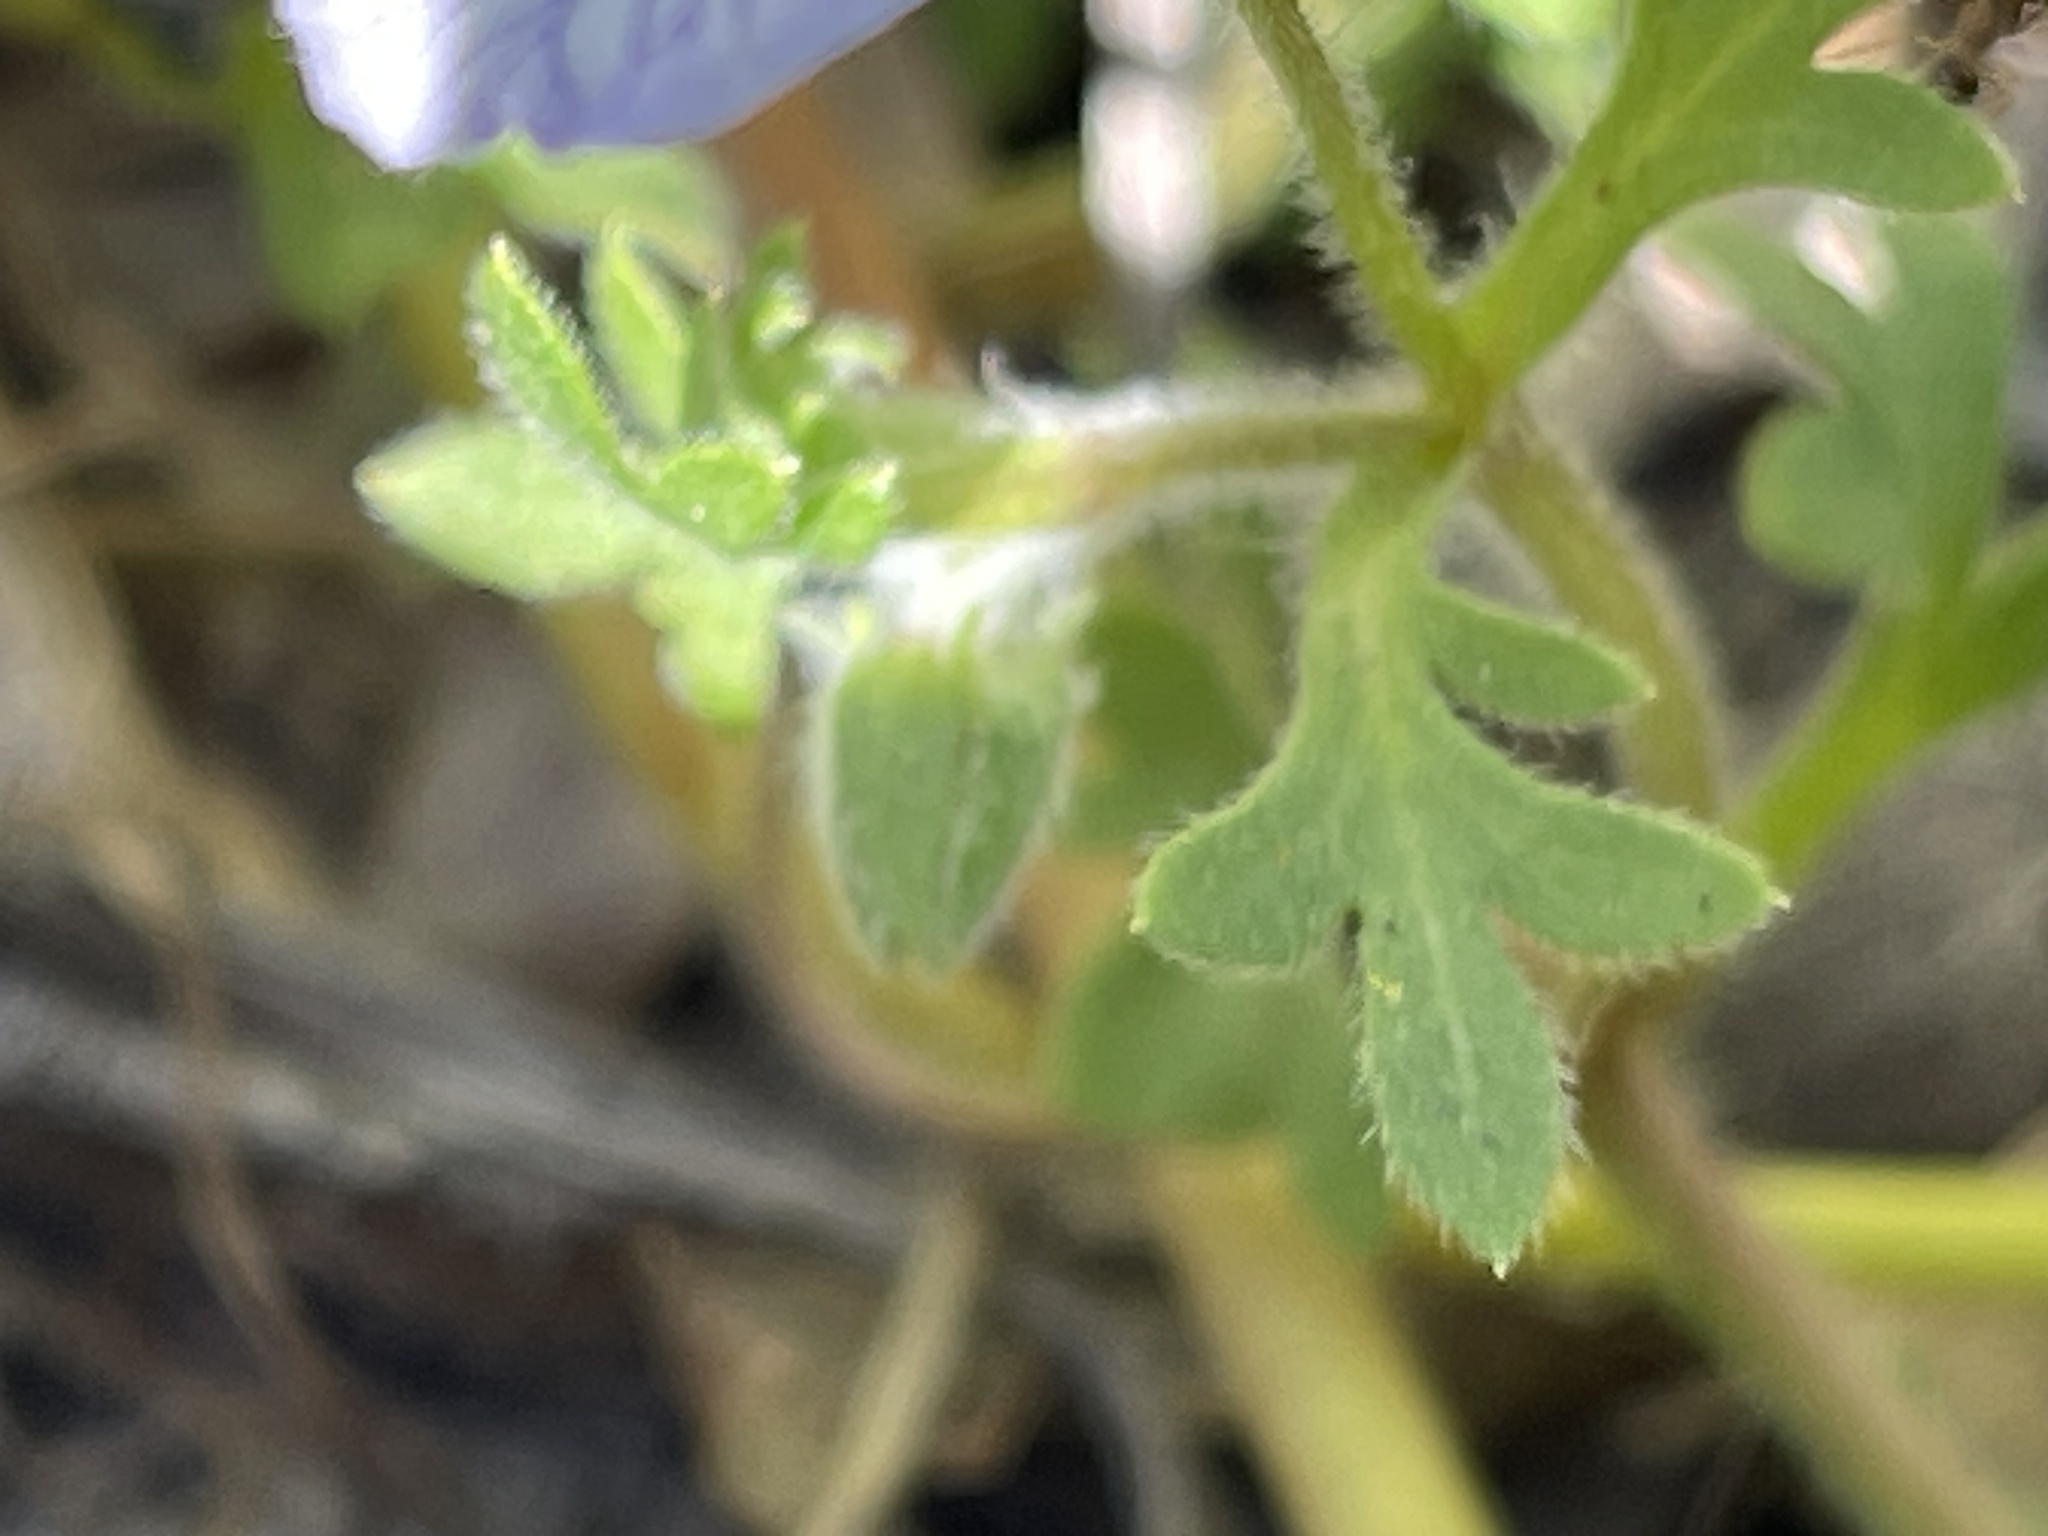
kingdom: Plantae
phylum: Tracheophyta
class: Magnoliopsida
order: Boraginales
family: Hydrophyllaceae
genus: Nemophila
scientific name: Nemophila menziesii
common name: Baby's-blue-eyes
